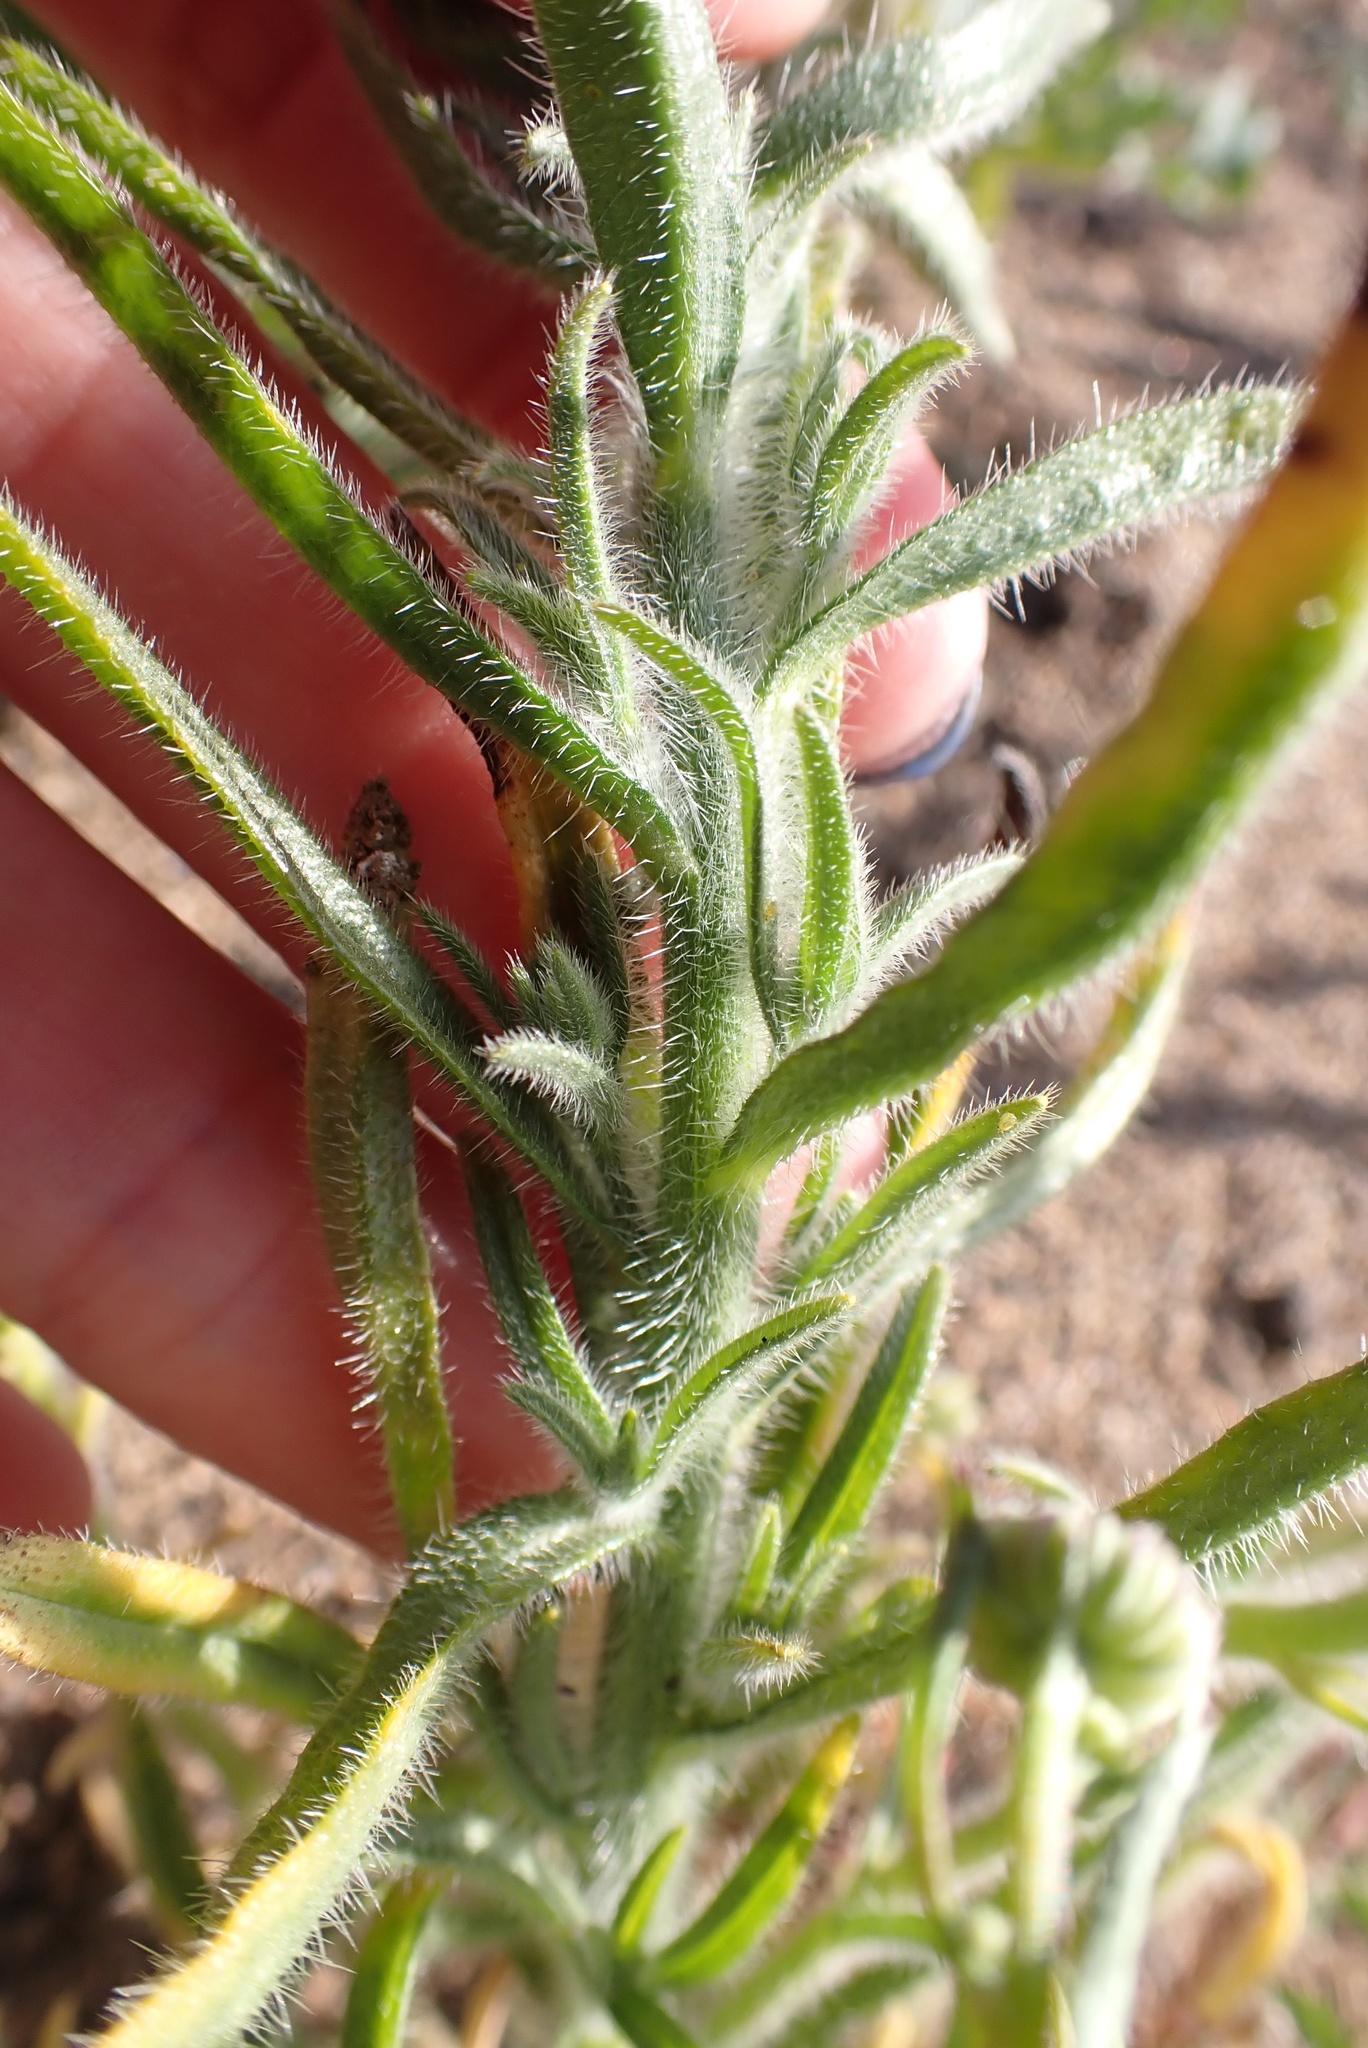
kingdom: Plantae
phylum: Tracheophyta
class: Magnoliopsida
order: Boraginales
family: Boraginaceae
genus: Cryptantha
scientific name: Cryptantha muricata
